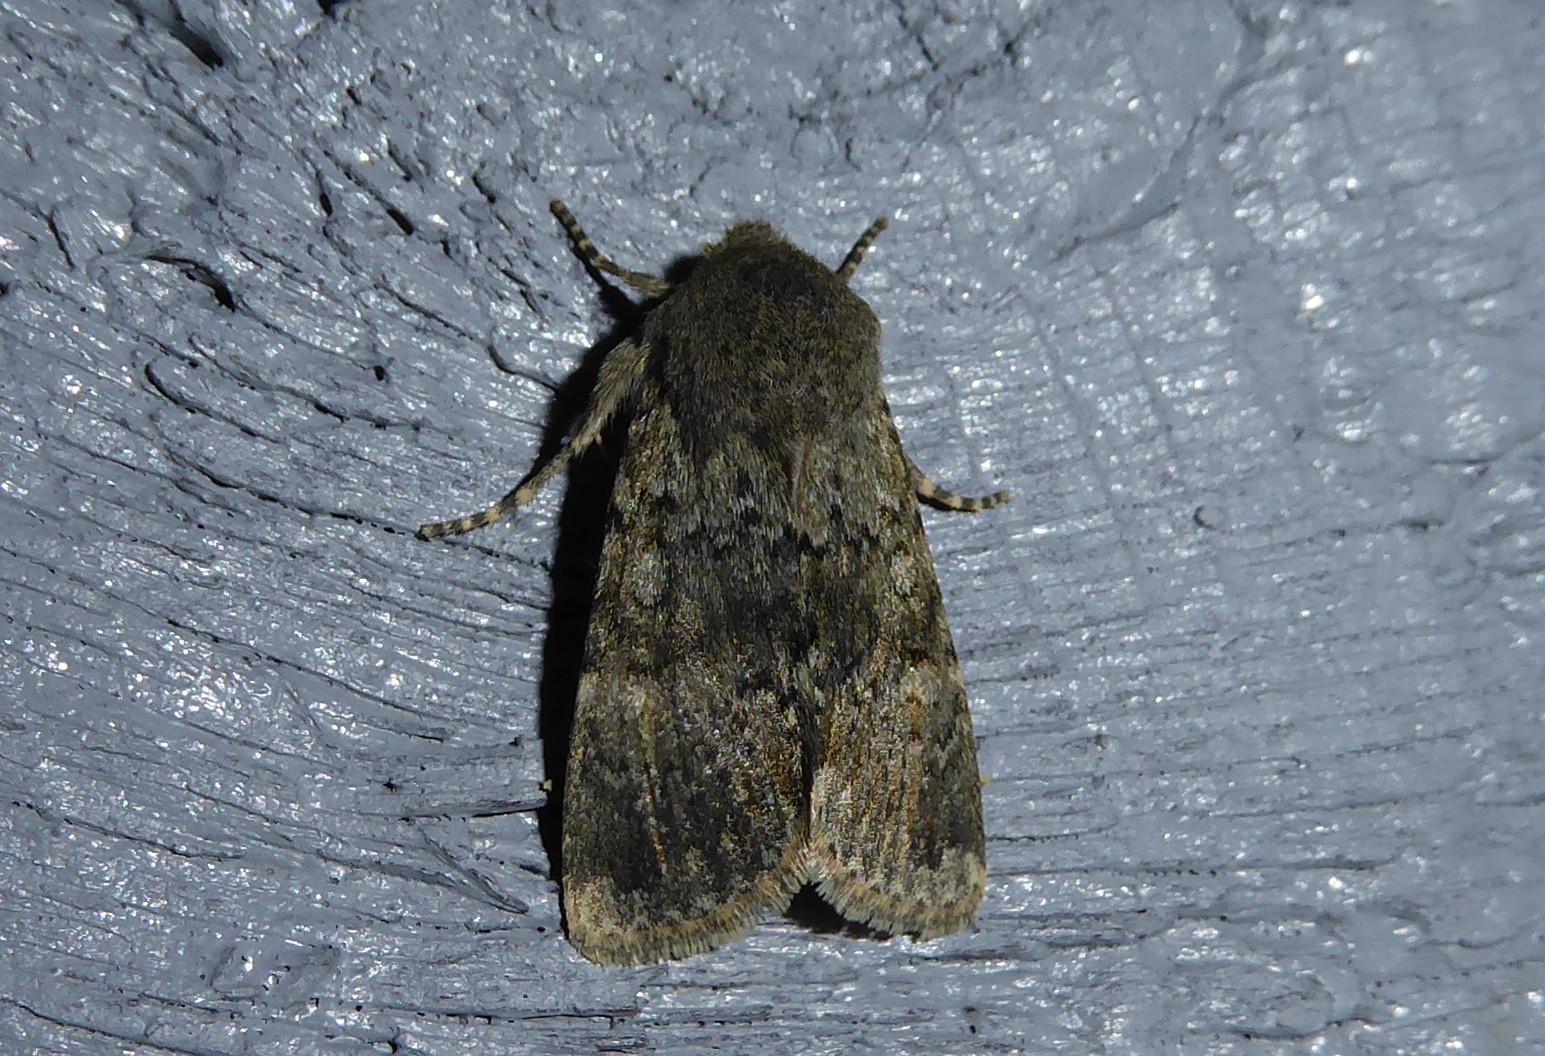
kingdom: Animalia
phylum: Arthropoda
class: Insecta
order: Lepidoptera
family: Noctuidae
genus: Ichneutica
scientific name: Ichneutica moderata
